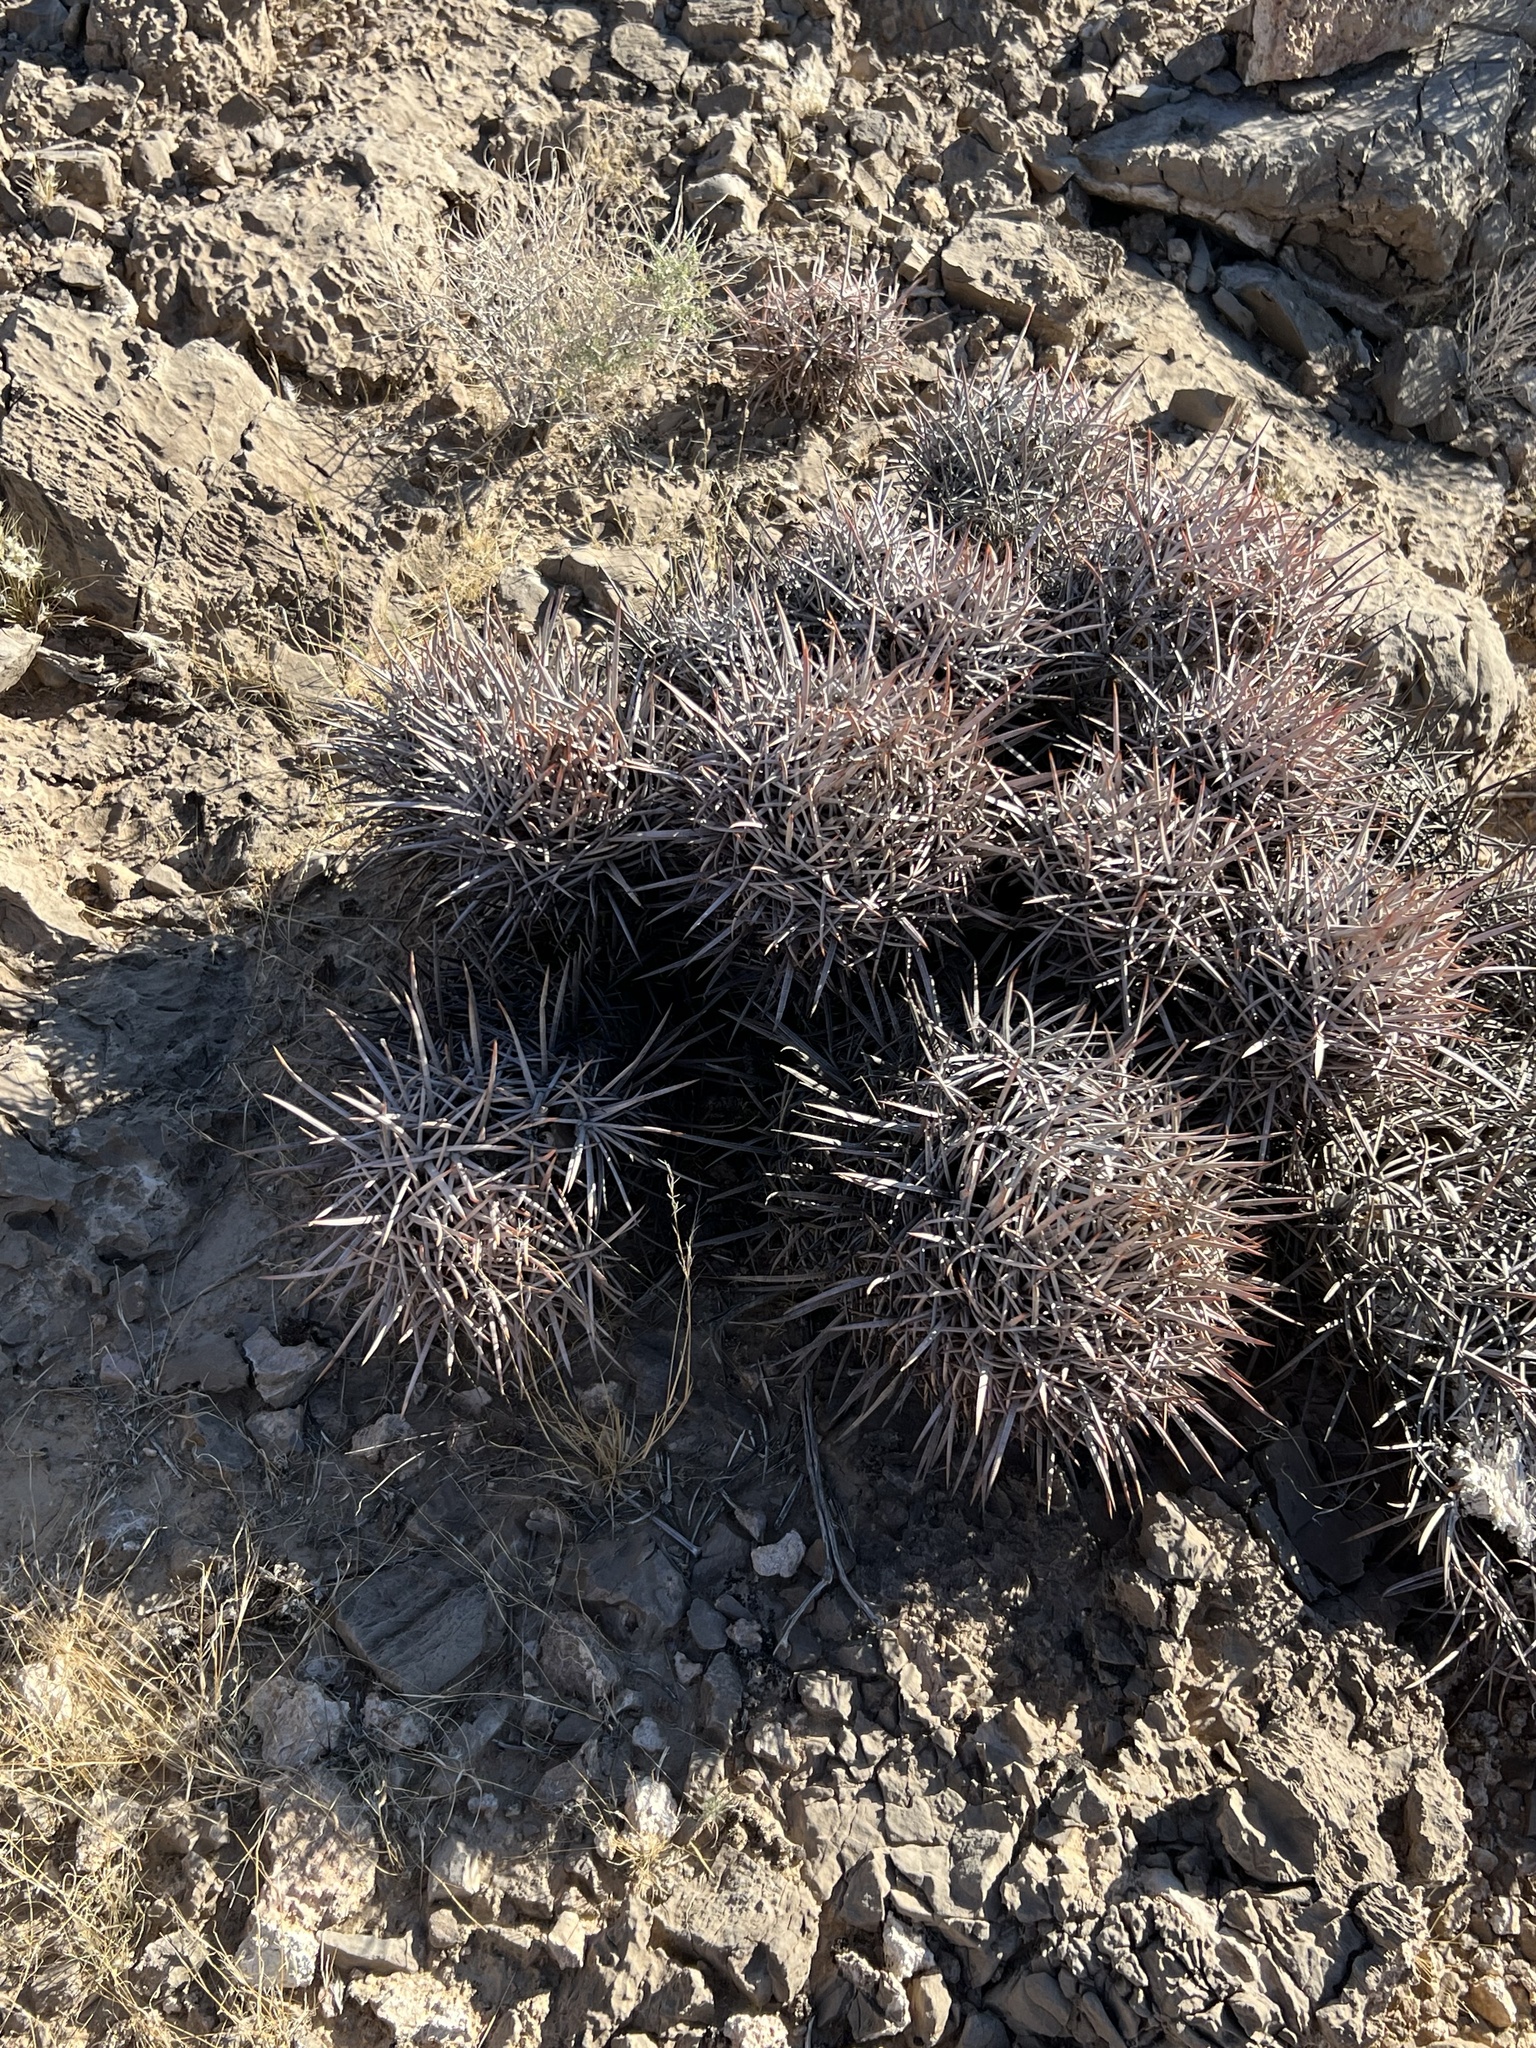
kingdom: Plantae
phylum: Tracheophyta
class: Magnoliopsida
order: Caryophyllales
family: Cactaceae
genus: Echinocactus
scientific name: Echinocactus polycephalus
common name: Cottontop cactus
